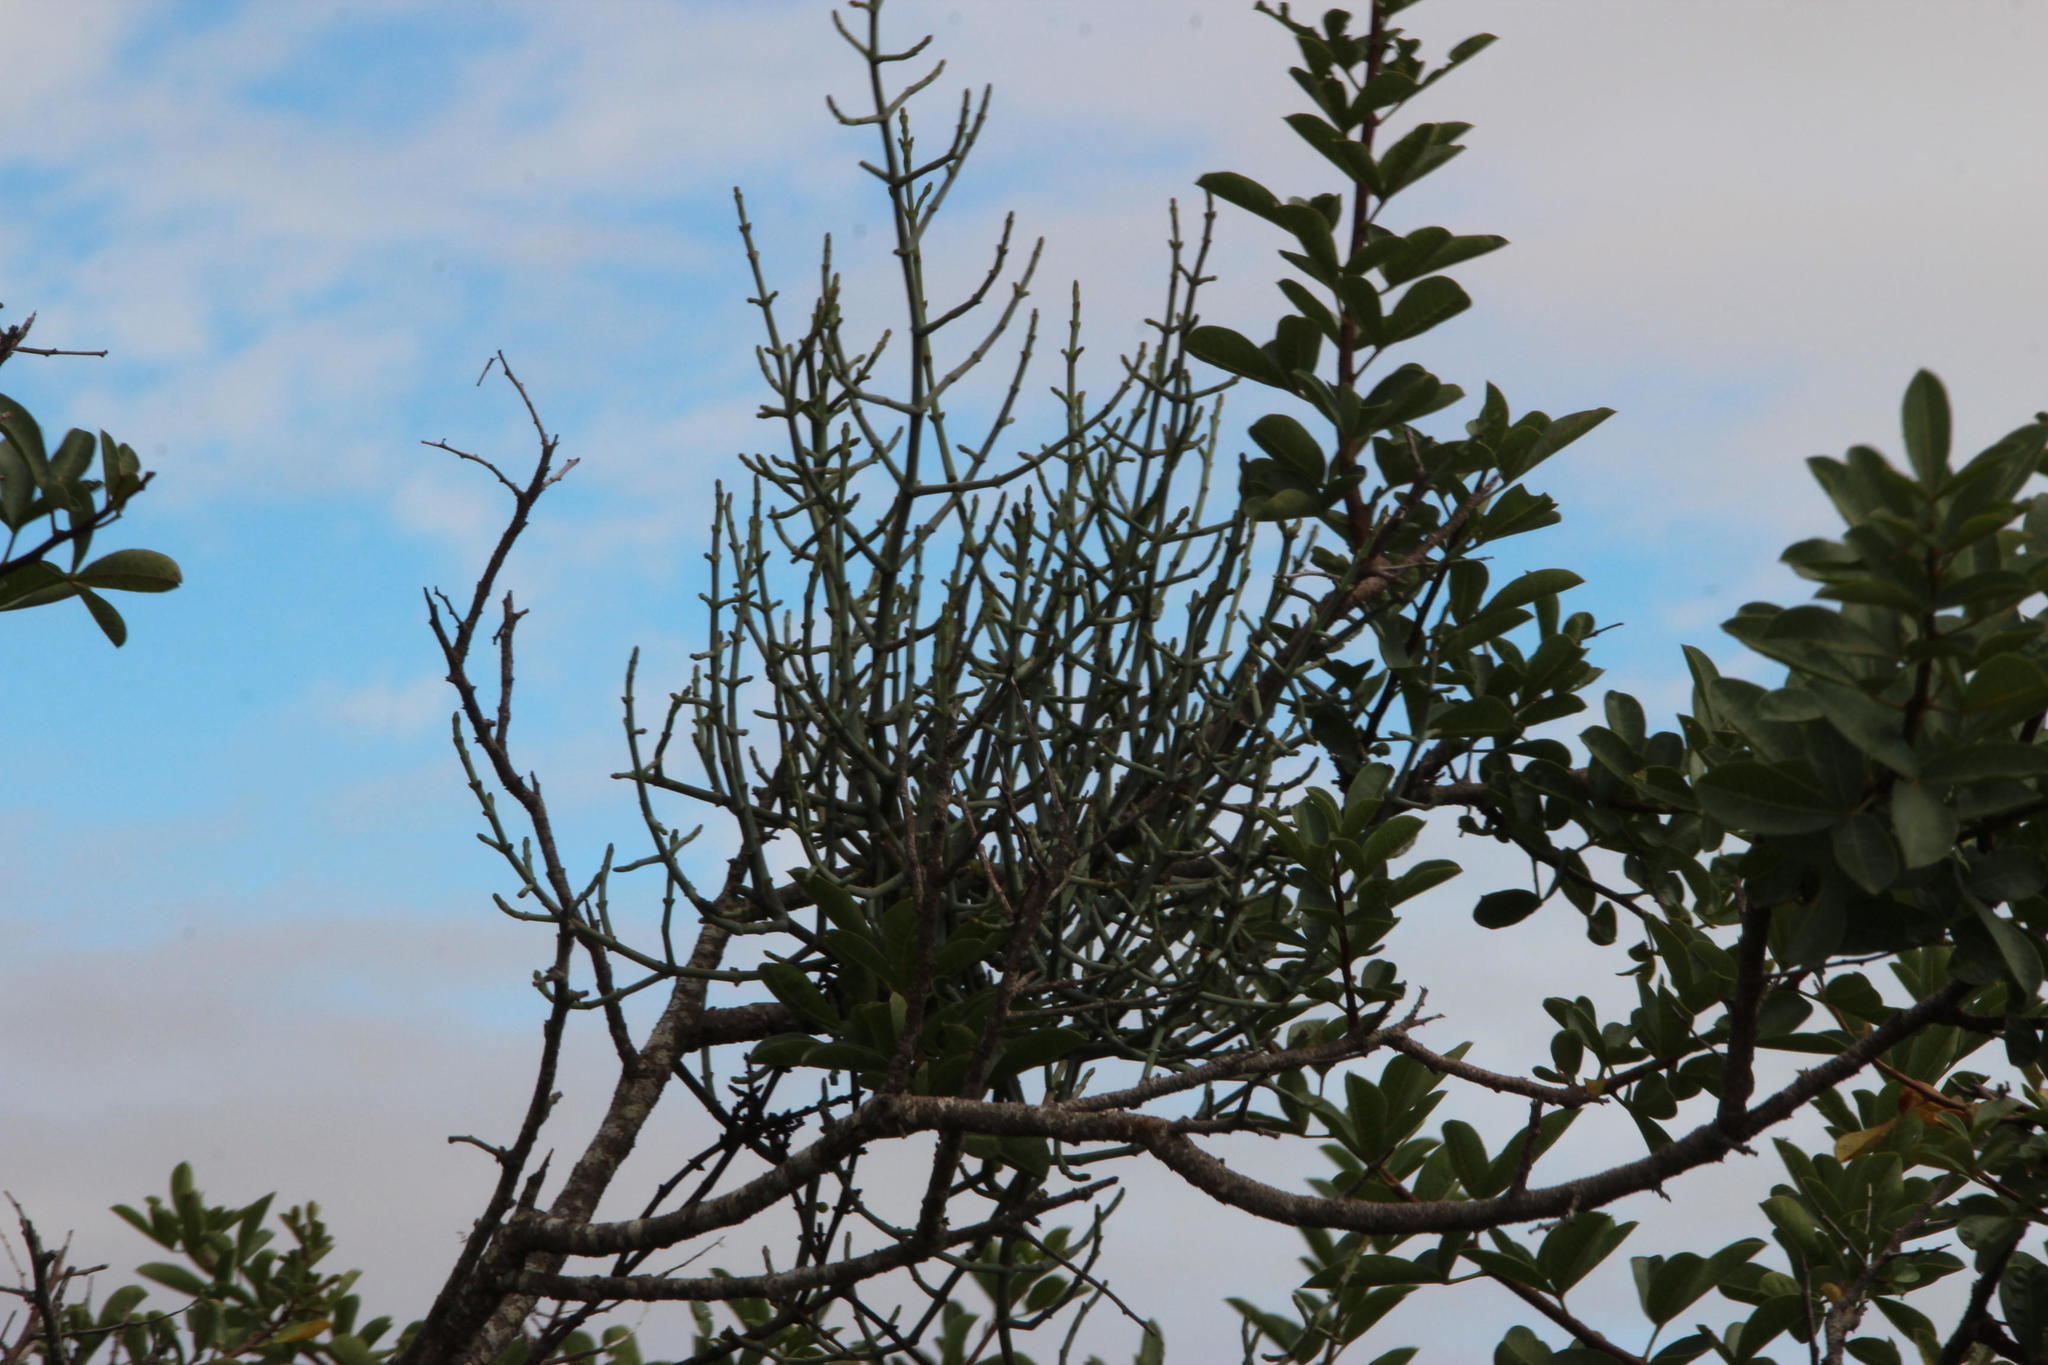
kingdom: Plantae
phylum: Tracheophyta
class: Magnoliopsida
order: Santalales
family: Viscaceae
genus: Viscum
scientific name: Viscum capense
